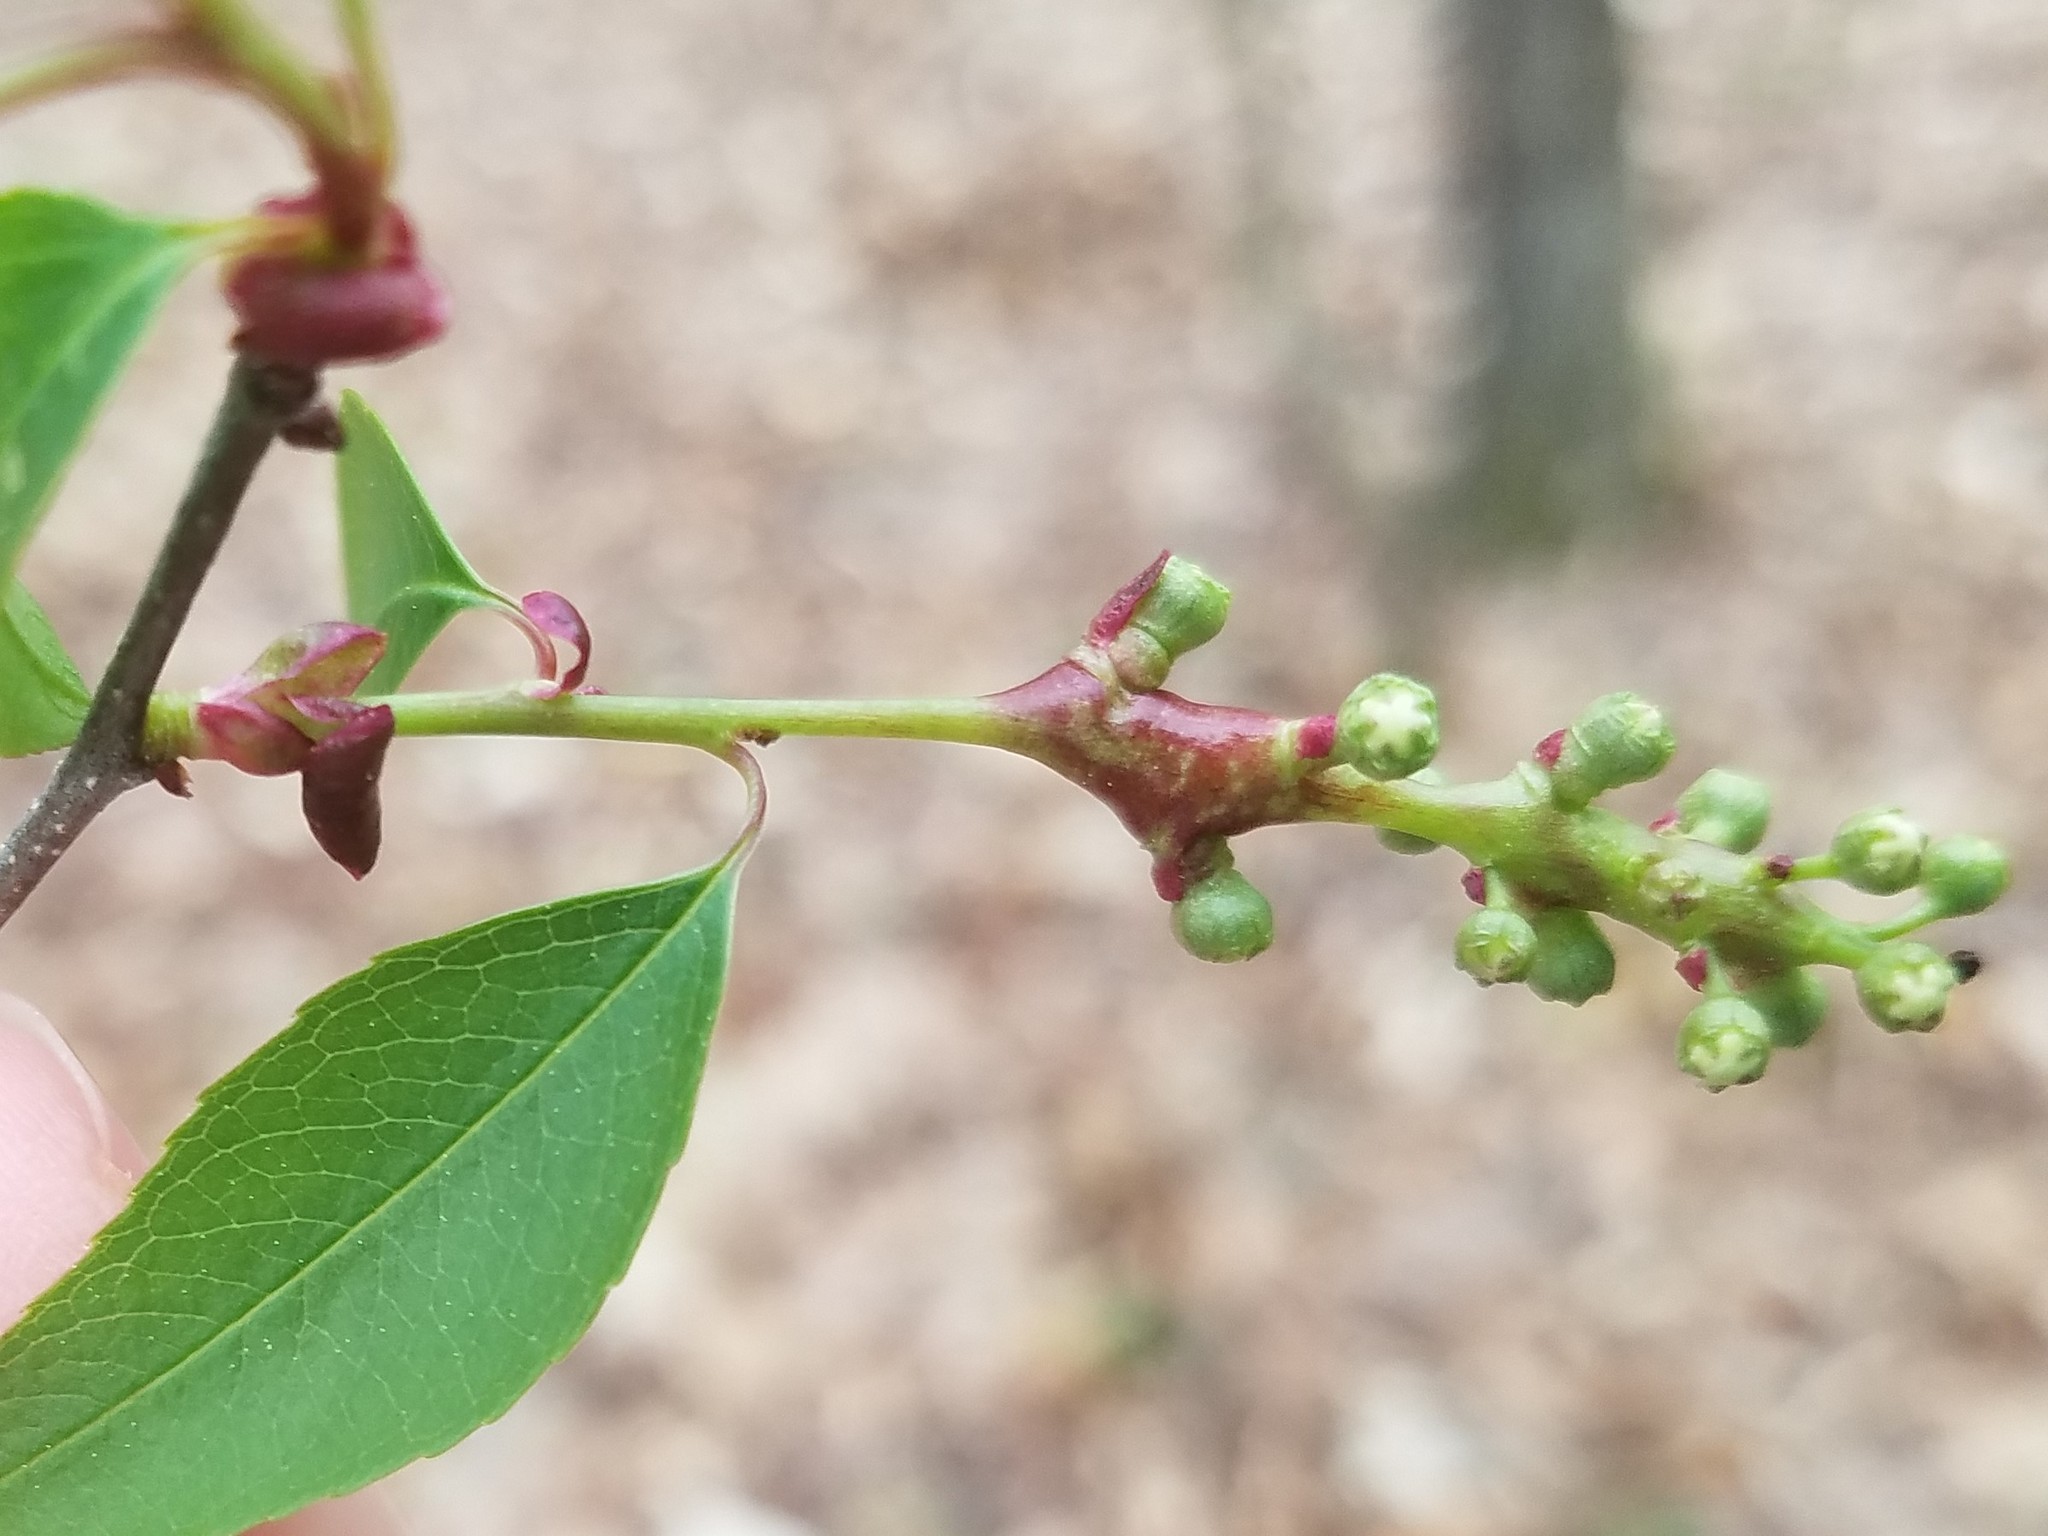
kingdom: Animalia
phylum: Arthropoda
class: Insecta
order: Diptera
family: Cecidomyiidae
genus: Contarinia
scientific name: Contarinia racemi
